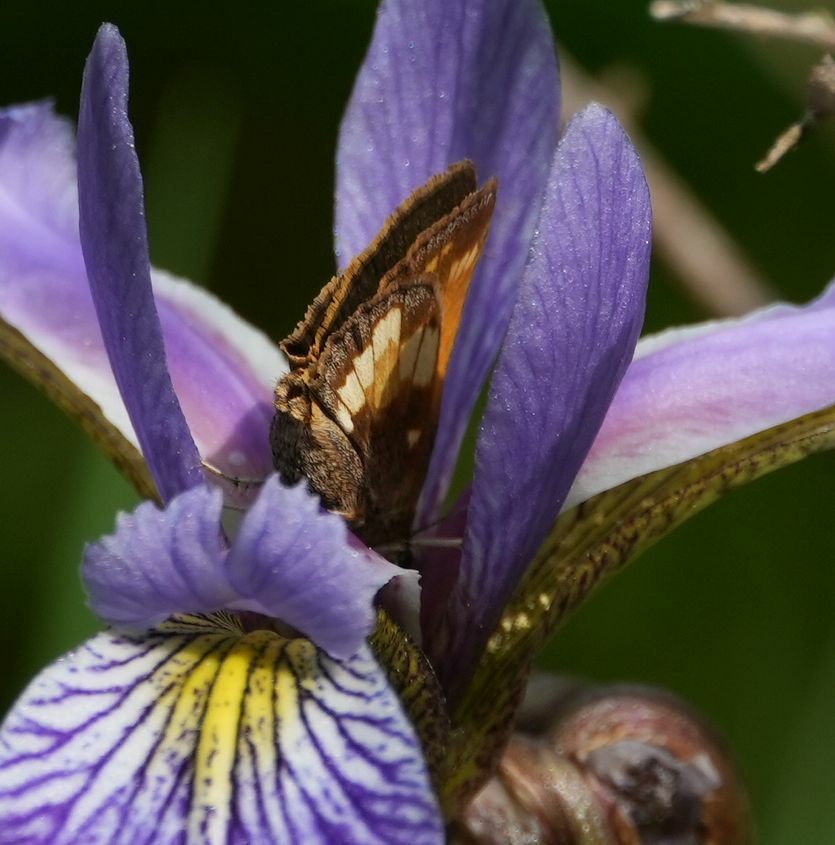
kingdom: Animalia
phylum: Arthropoda
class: Insecta
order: Lepidoptera
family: Hesperiidae
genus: Lon
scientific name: Lon hobomok
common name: Hobomok skipper
